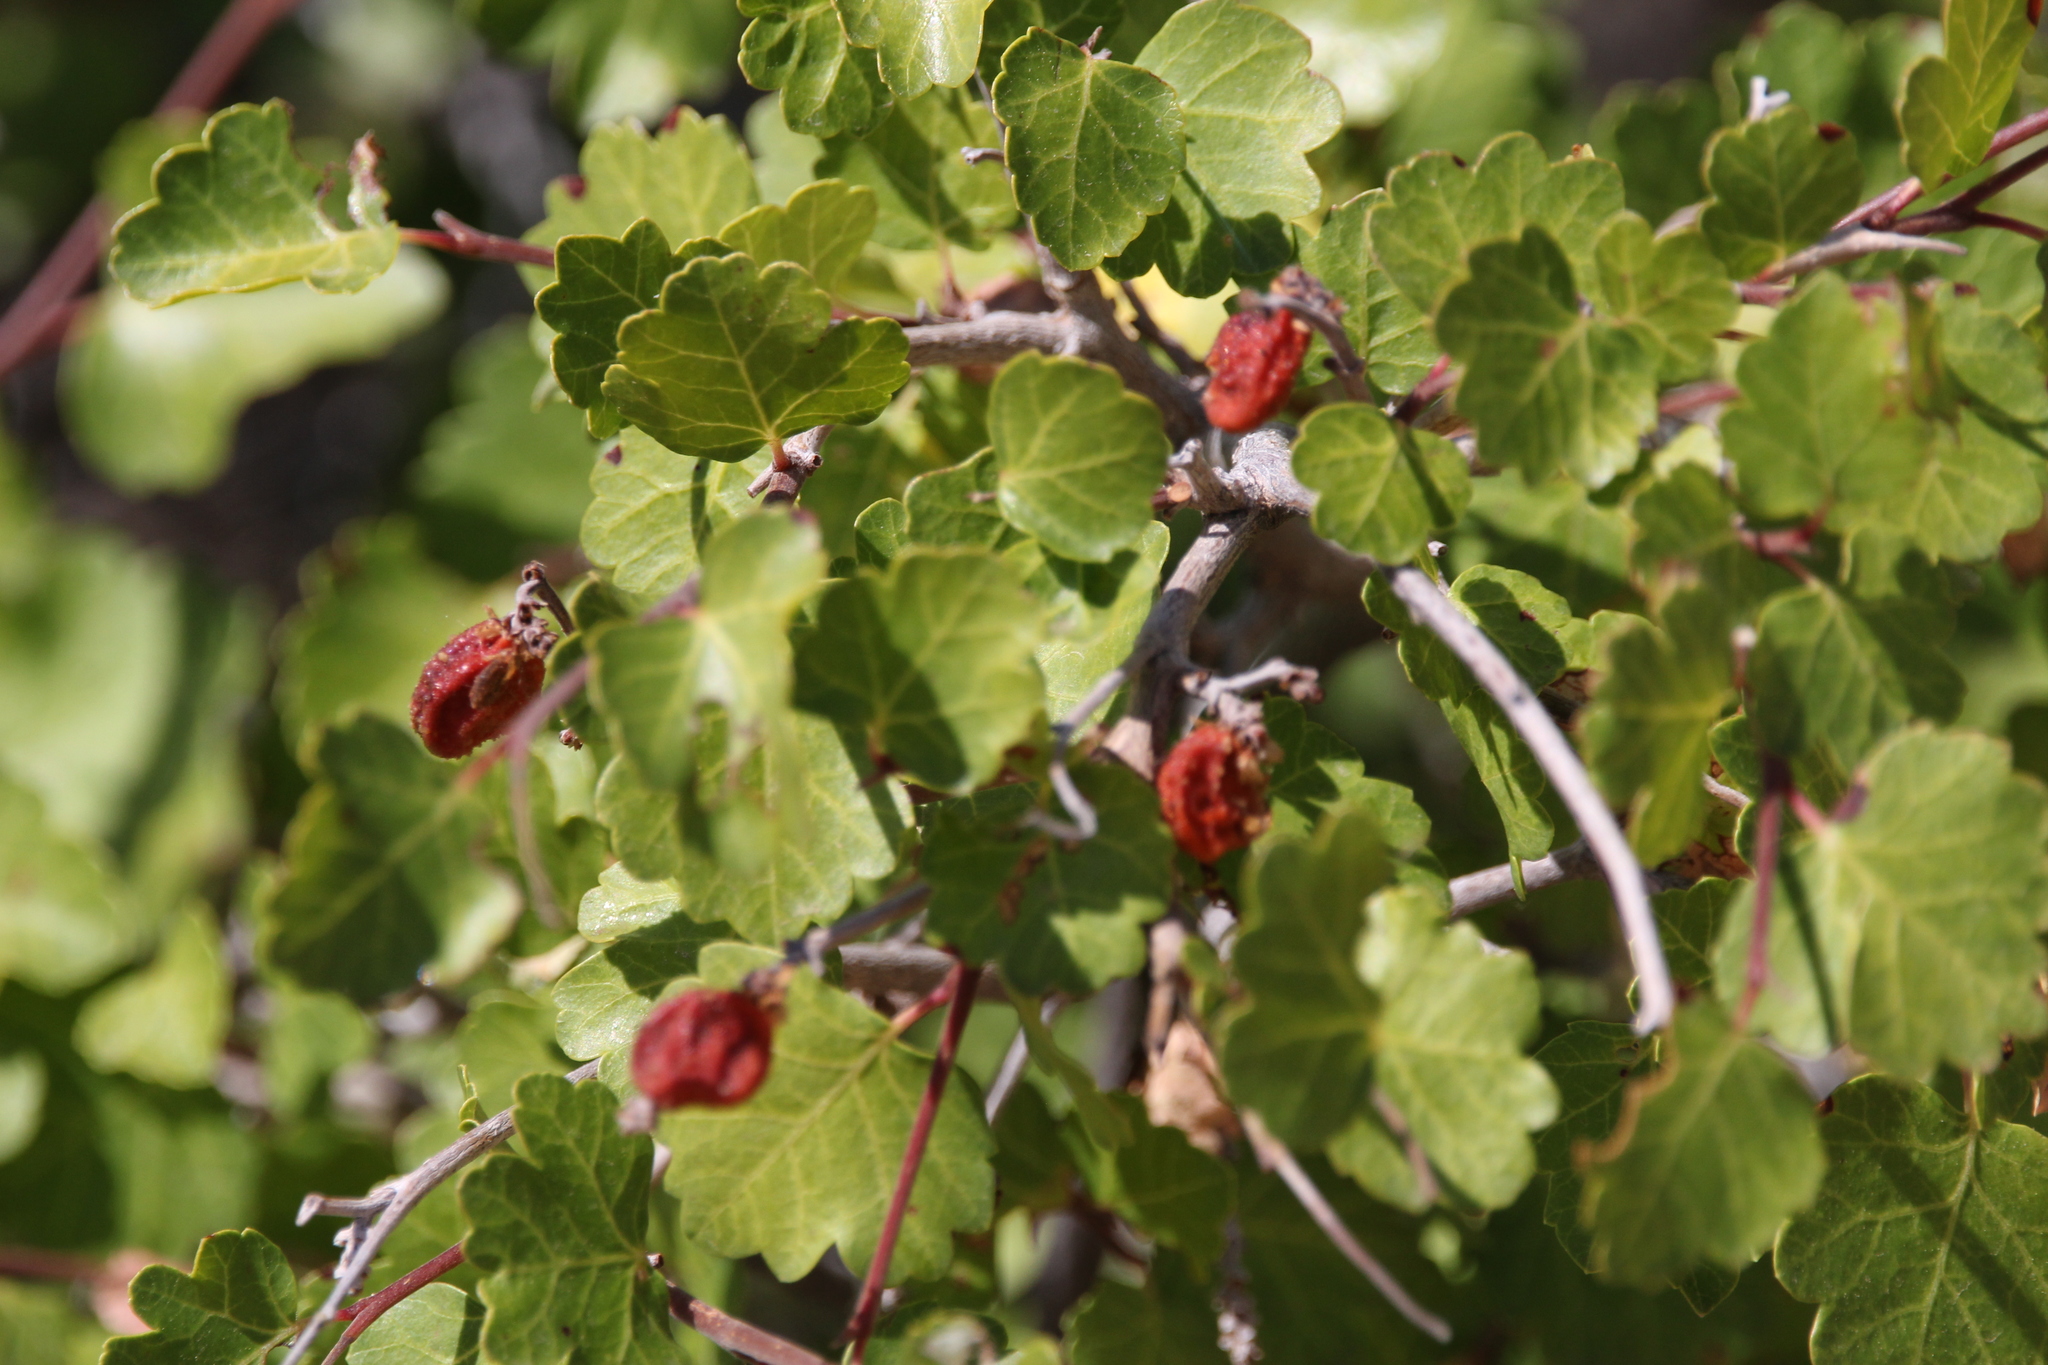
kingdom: Plantae
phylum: Tracheophyta
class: Magnoliopsida
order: Sapindales
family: Anacardiaceae
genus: Rhus
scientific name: Rhus trilobata
